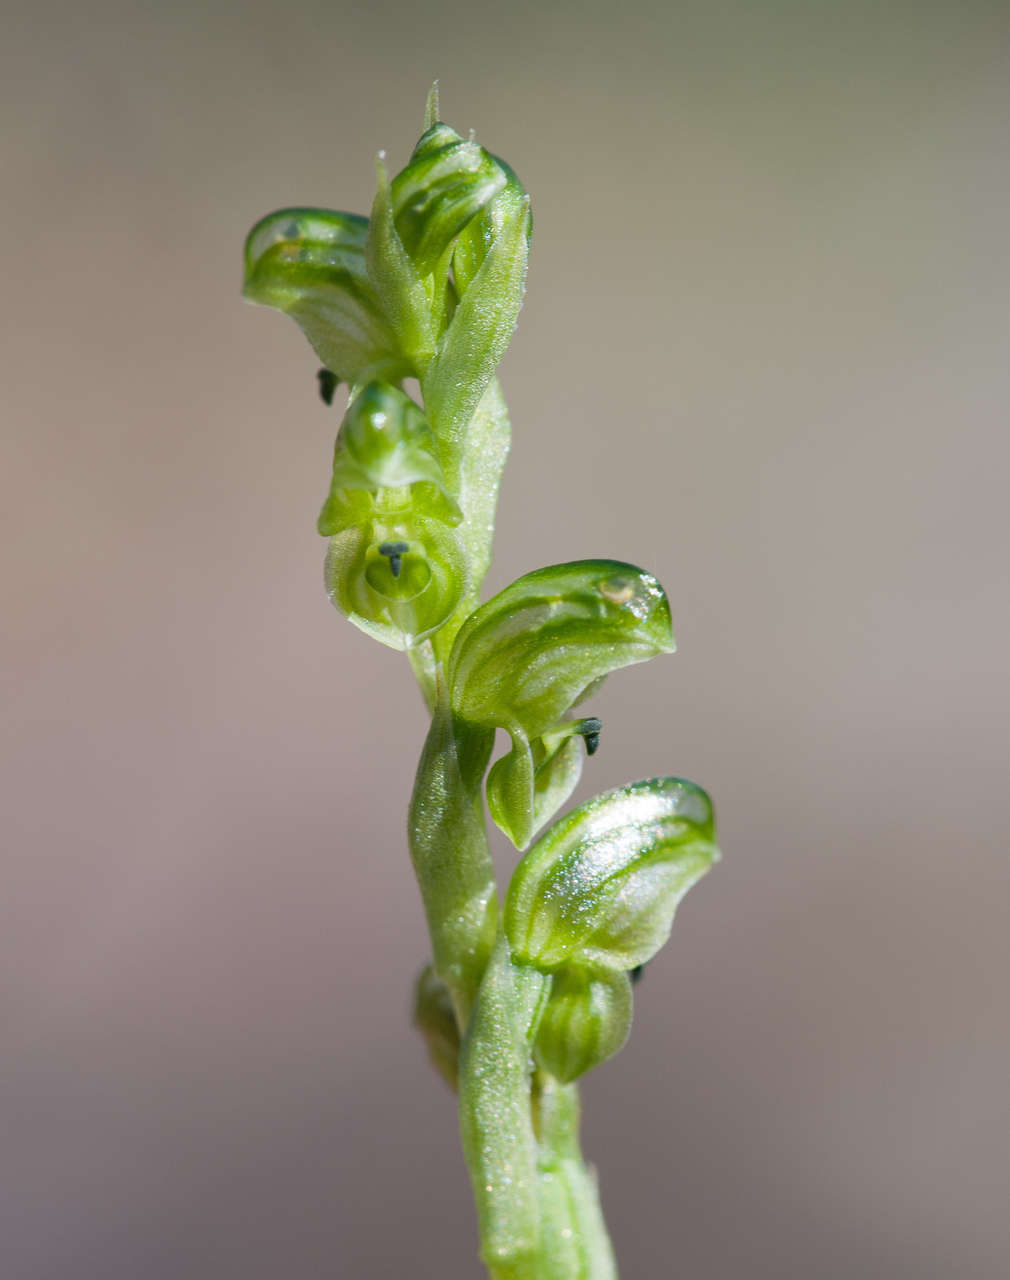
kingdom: Plantae
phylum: Tracheophyta
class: Liliopsida
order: Asparagales
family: Orchidaceae
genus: Pterostylis
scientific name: Pterostylis cycnocephala
